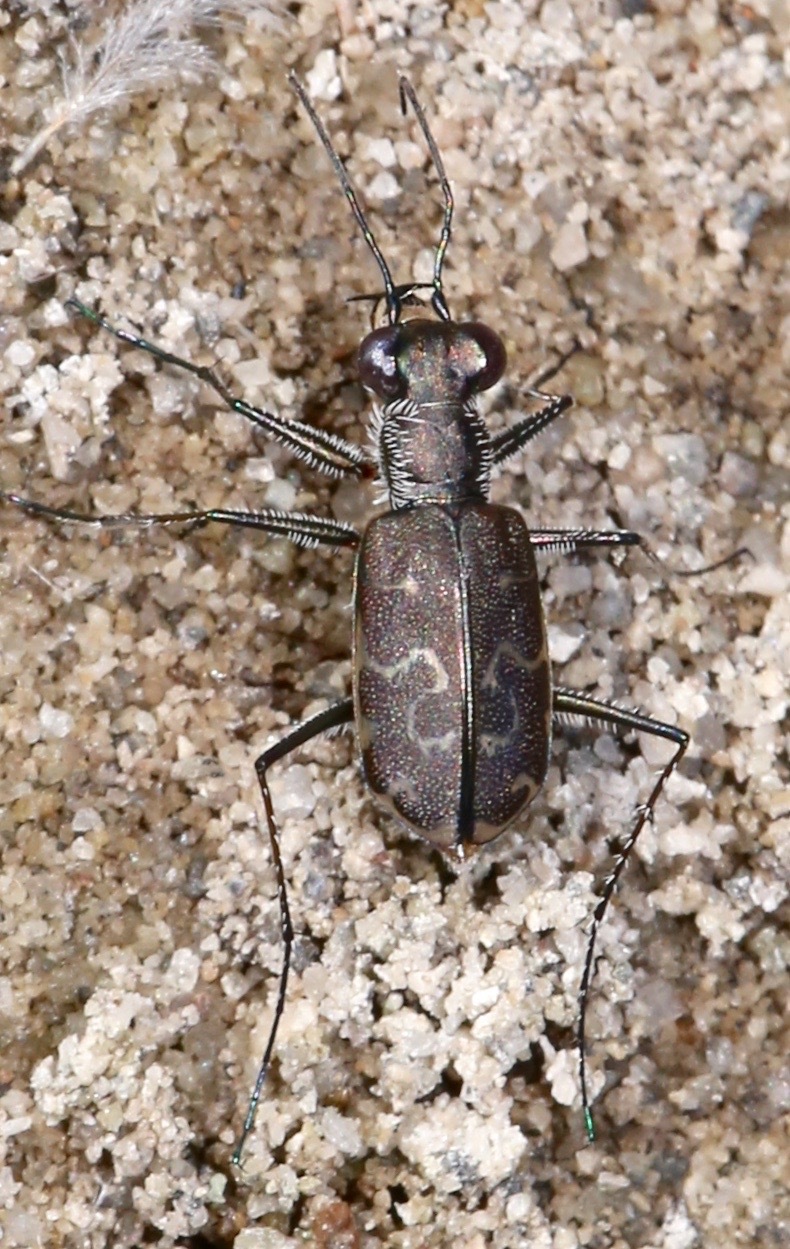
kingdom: Animalia
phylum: Arthropoda
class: Insecta
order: Coleoptera
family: Carabidae
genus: Cicindela
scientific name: Cicindela trifasciata
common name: Mudflat tiger beetle
